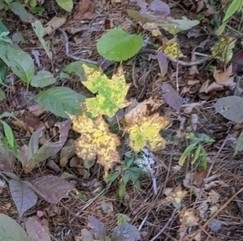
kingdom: Plantae
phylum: Tracheophyta
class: Magnoliopsida
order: Sapindales
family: Sapindaceae
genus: Acer
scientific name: Acer saccharum
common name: Sugar maple
